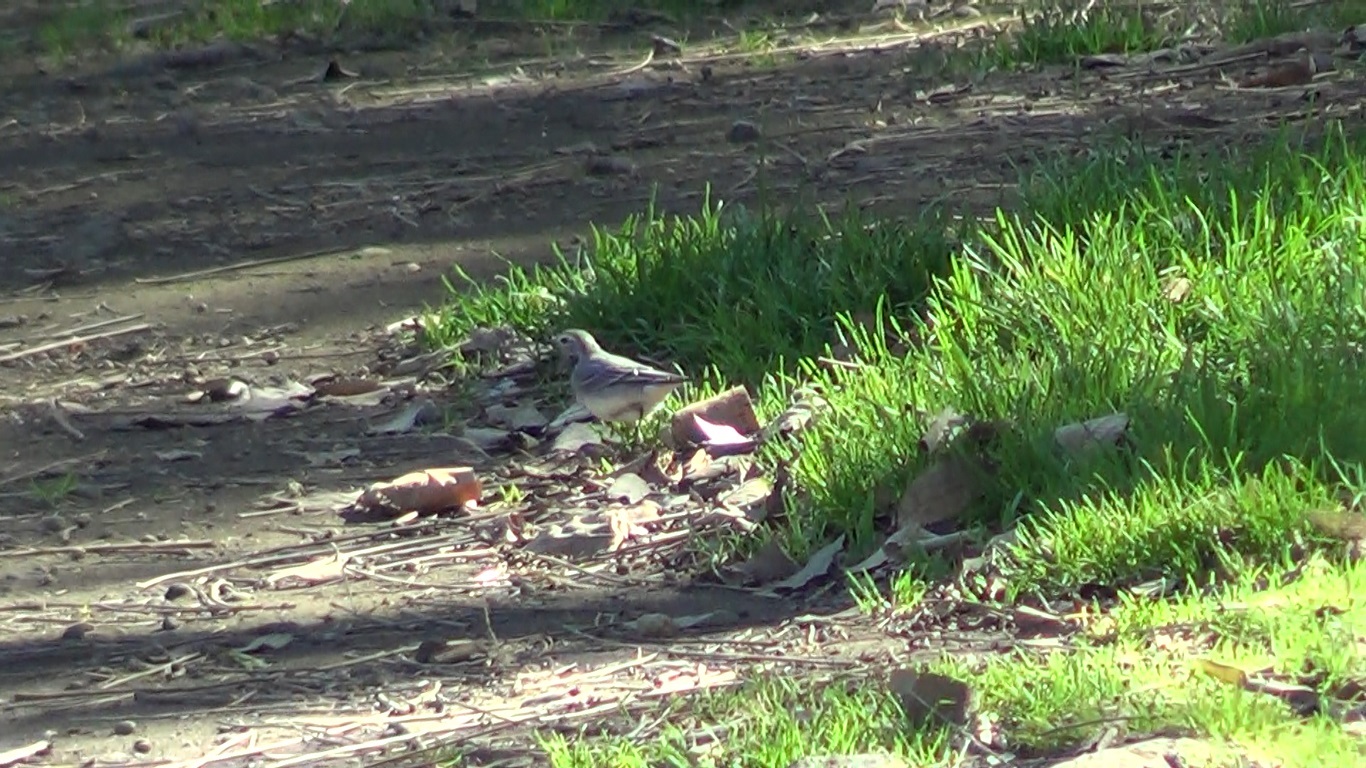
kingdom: Animalia
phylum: Chordata
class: Aves
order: Passeriformes
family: Motacillidae
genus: Motacilla
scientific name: Motacilla alba
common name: White wagtail
